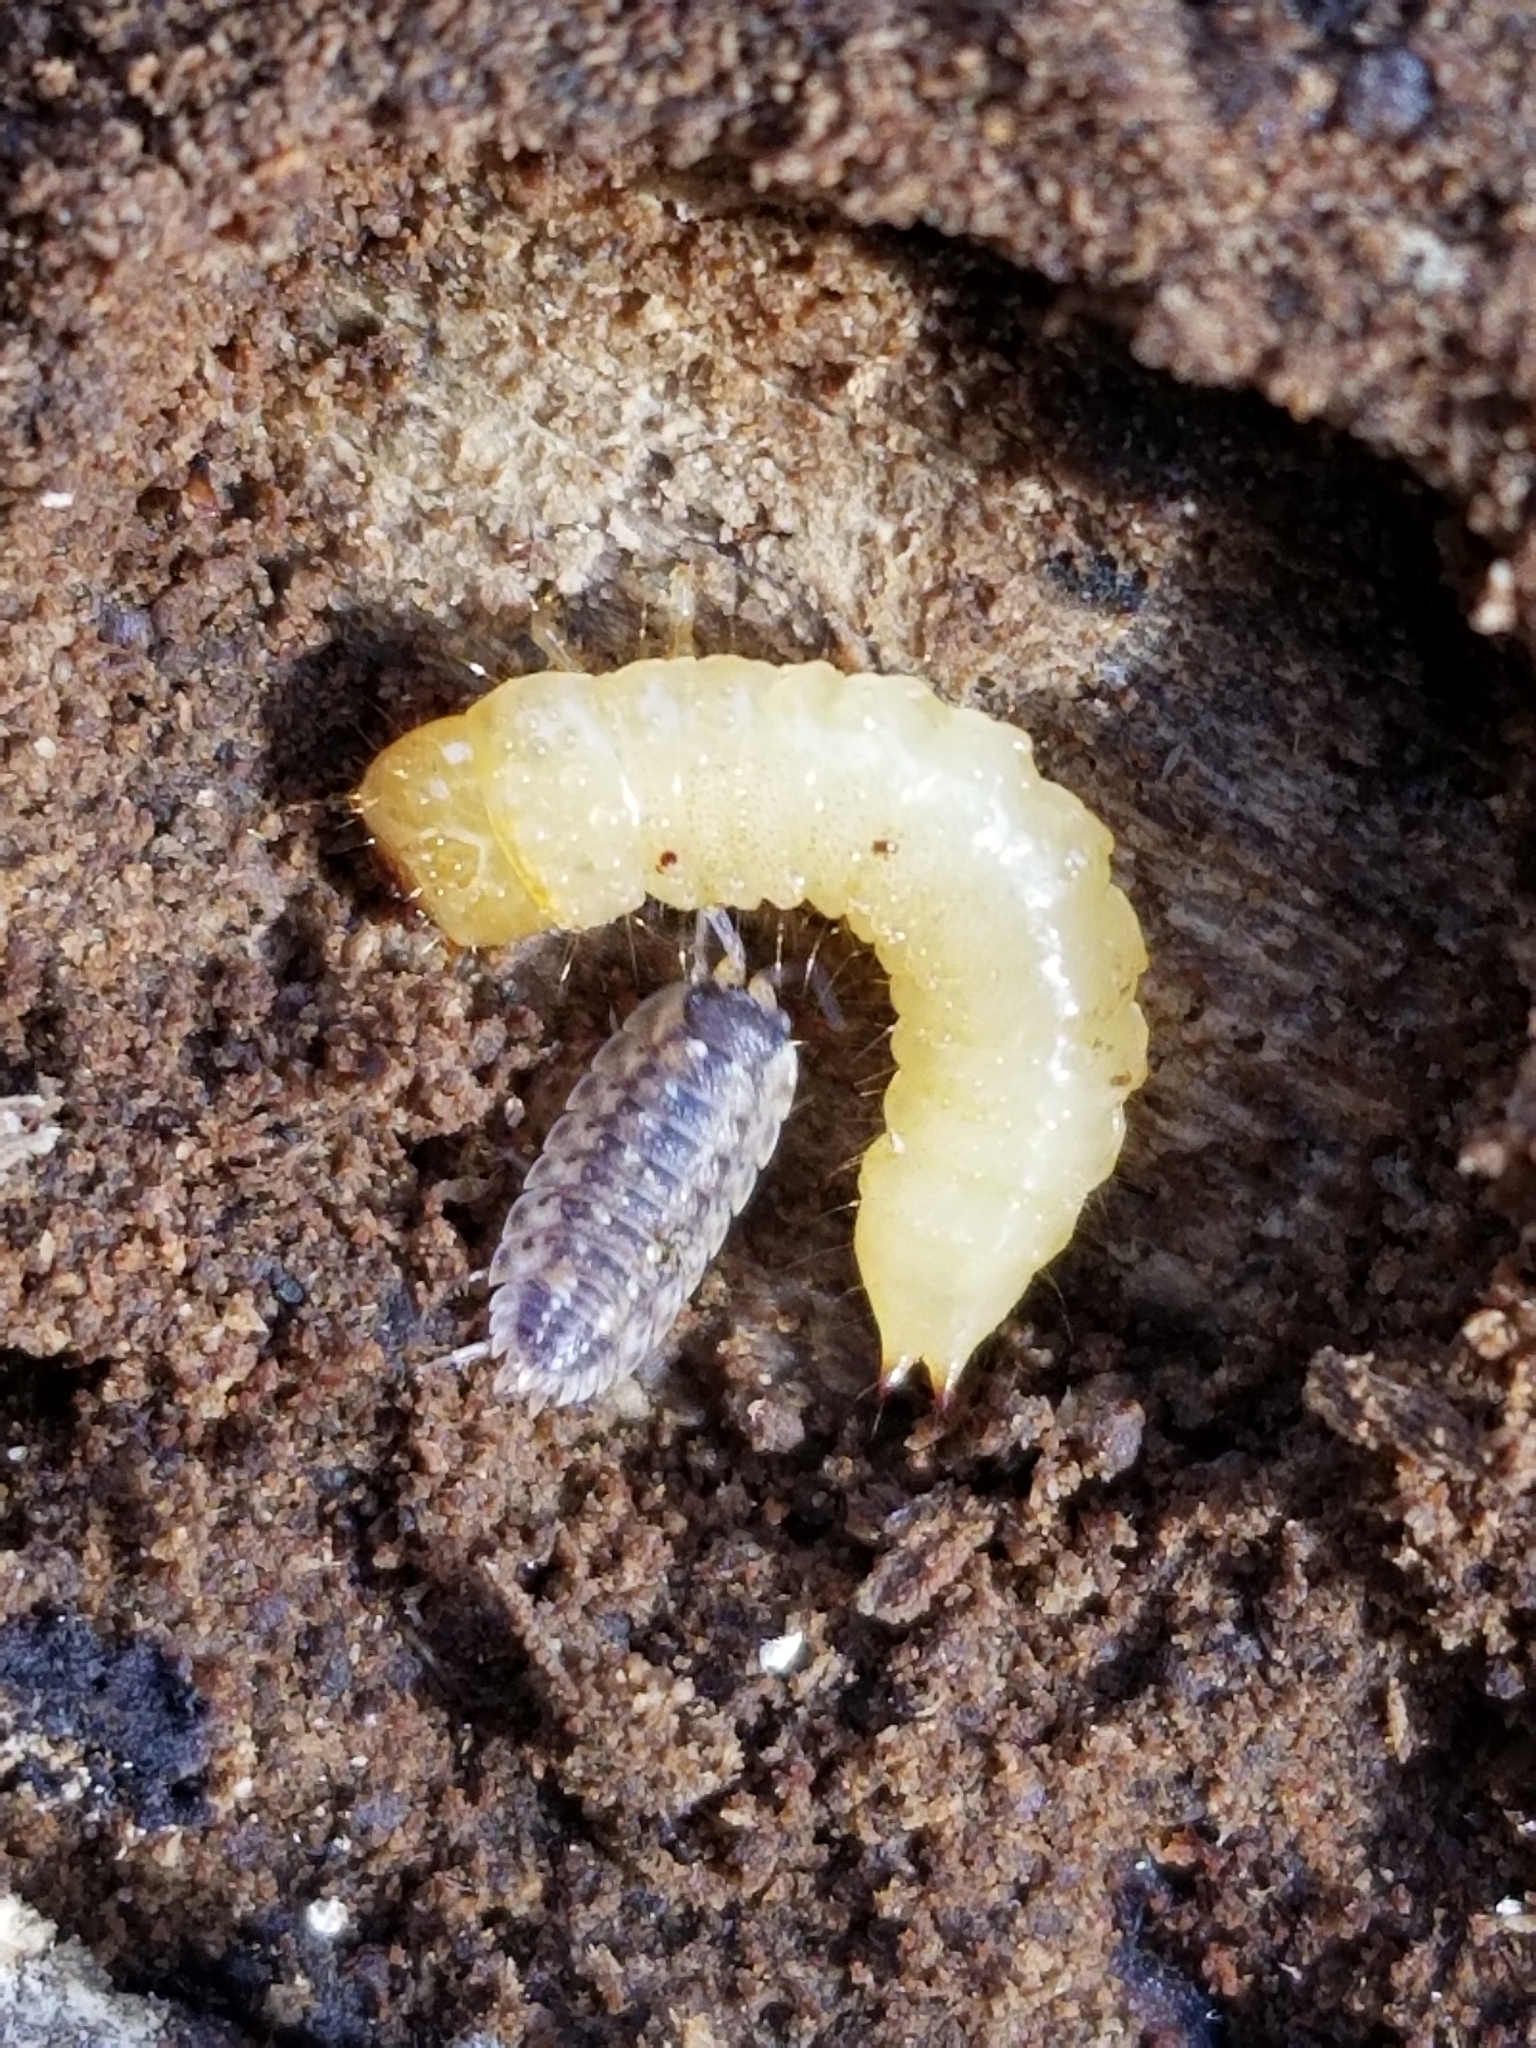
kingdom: Animalia
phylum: Arthropoda
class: Malacostraca
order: Isopoda
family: Porcellionidae
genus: Porcellio
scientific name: Porcellio spinicornis
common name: Painted woodlouse
